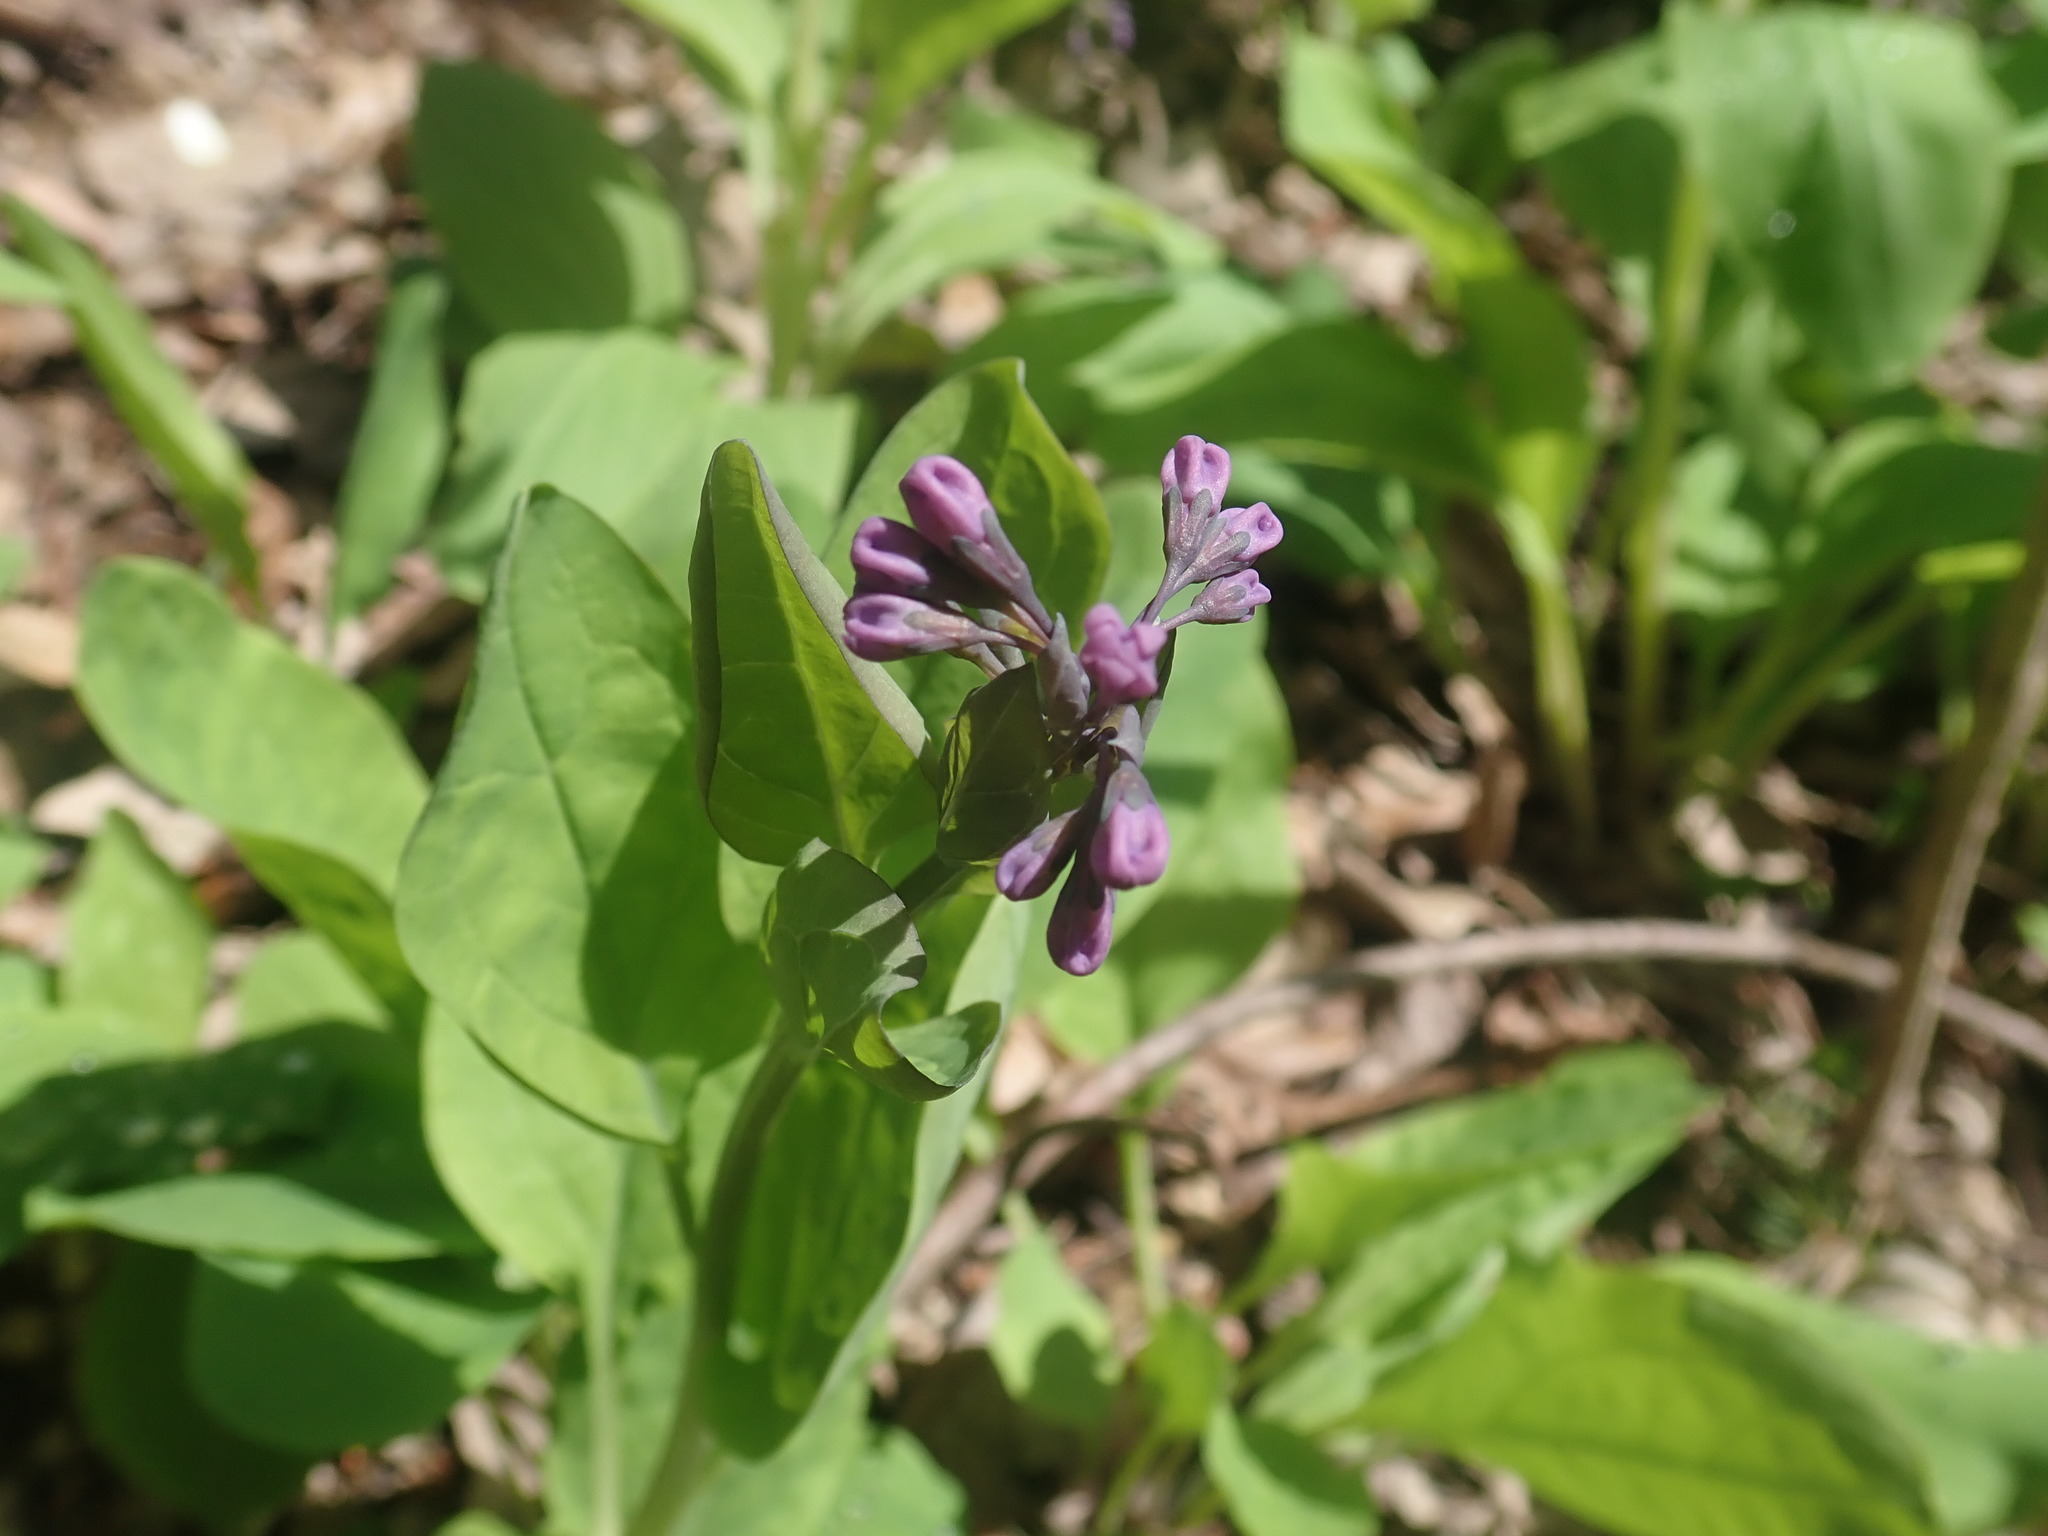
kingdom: Plantae
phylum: Tracheophyta
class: Magnoliopsida
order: Boraginales
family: Boraginaceae
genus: Mertensia
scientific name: Mertensia virginica
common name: Virginia bluebells
